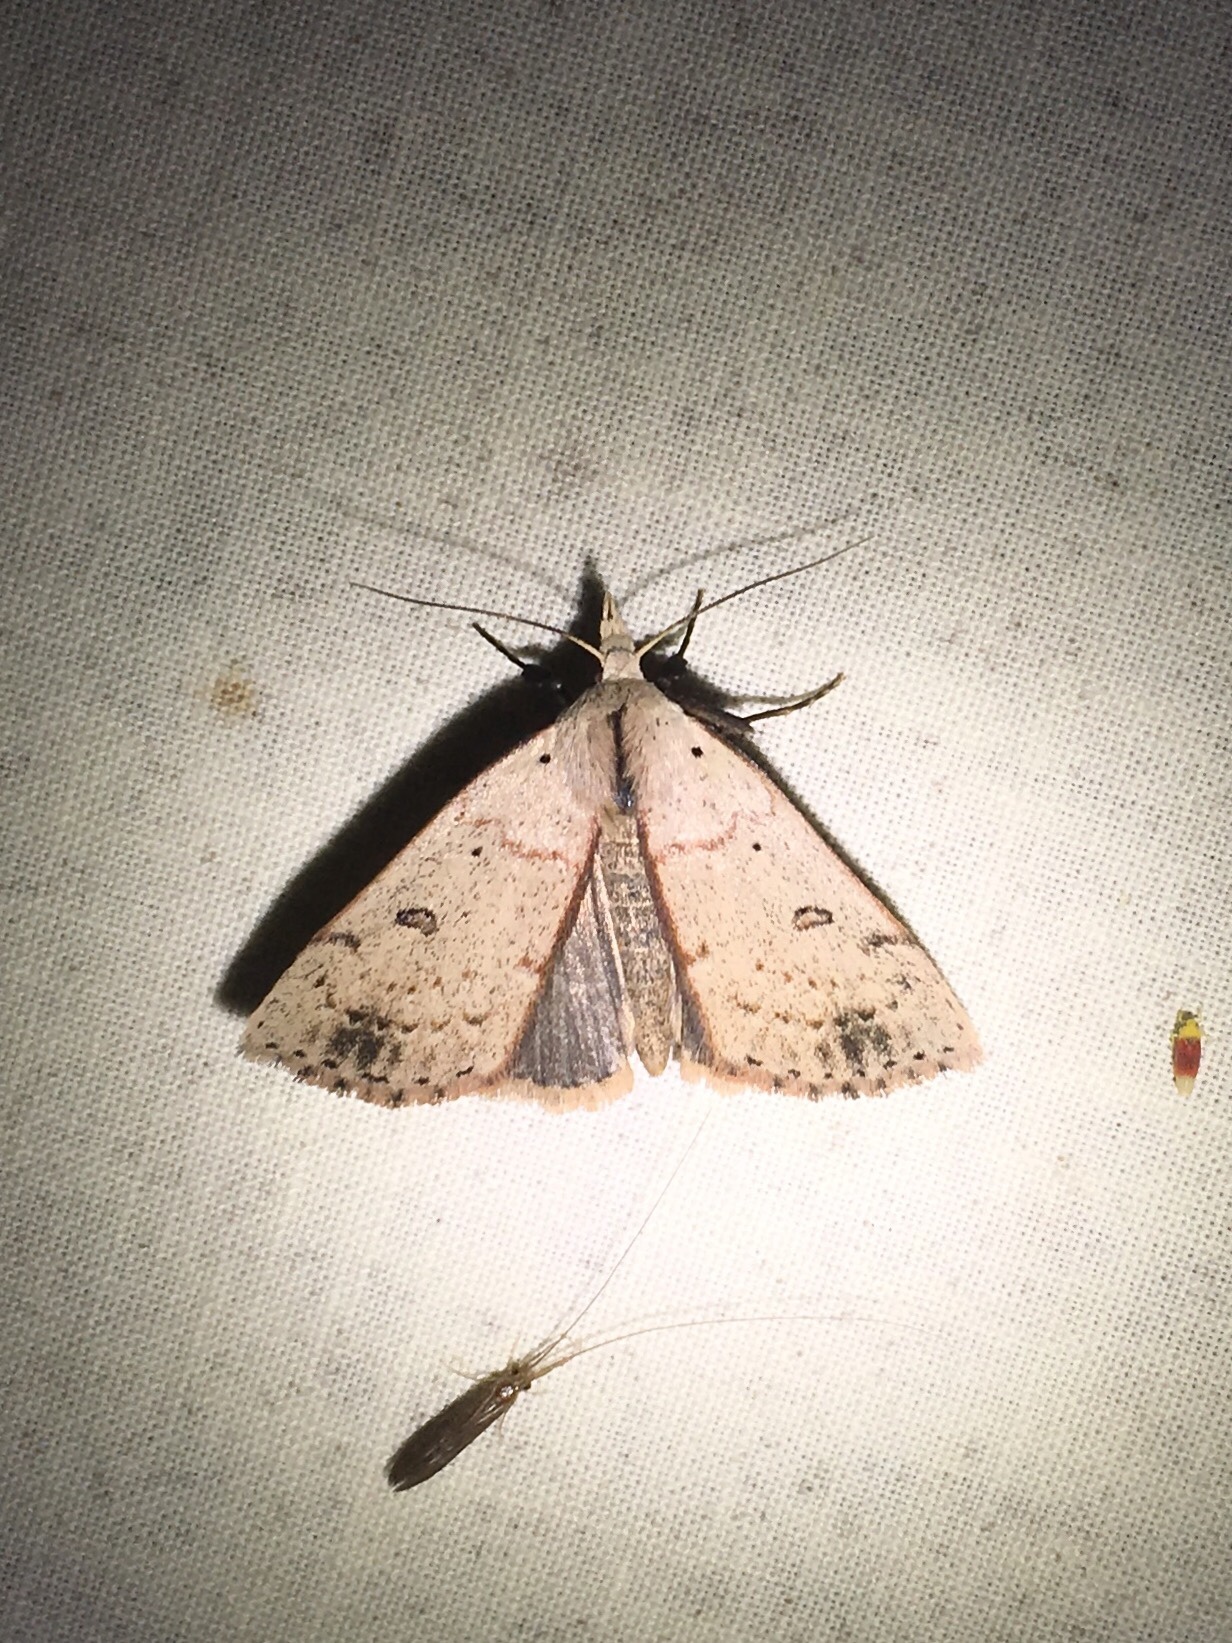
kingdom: Animalia
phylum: Arthropoda
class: Insecta
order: Lepidoptera
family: Erebidae
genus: Scolecocampa
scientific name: Scolecocampa liburna
